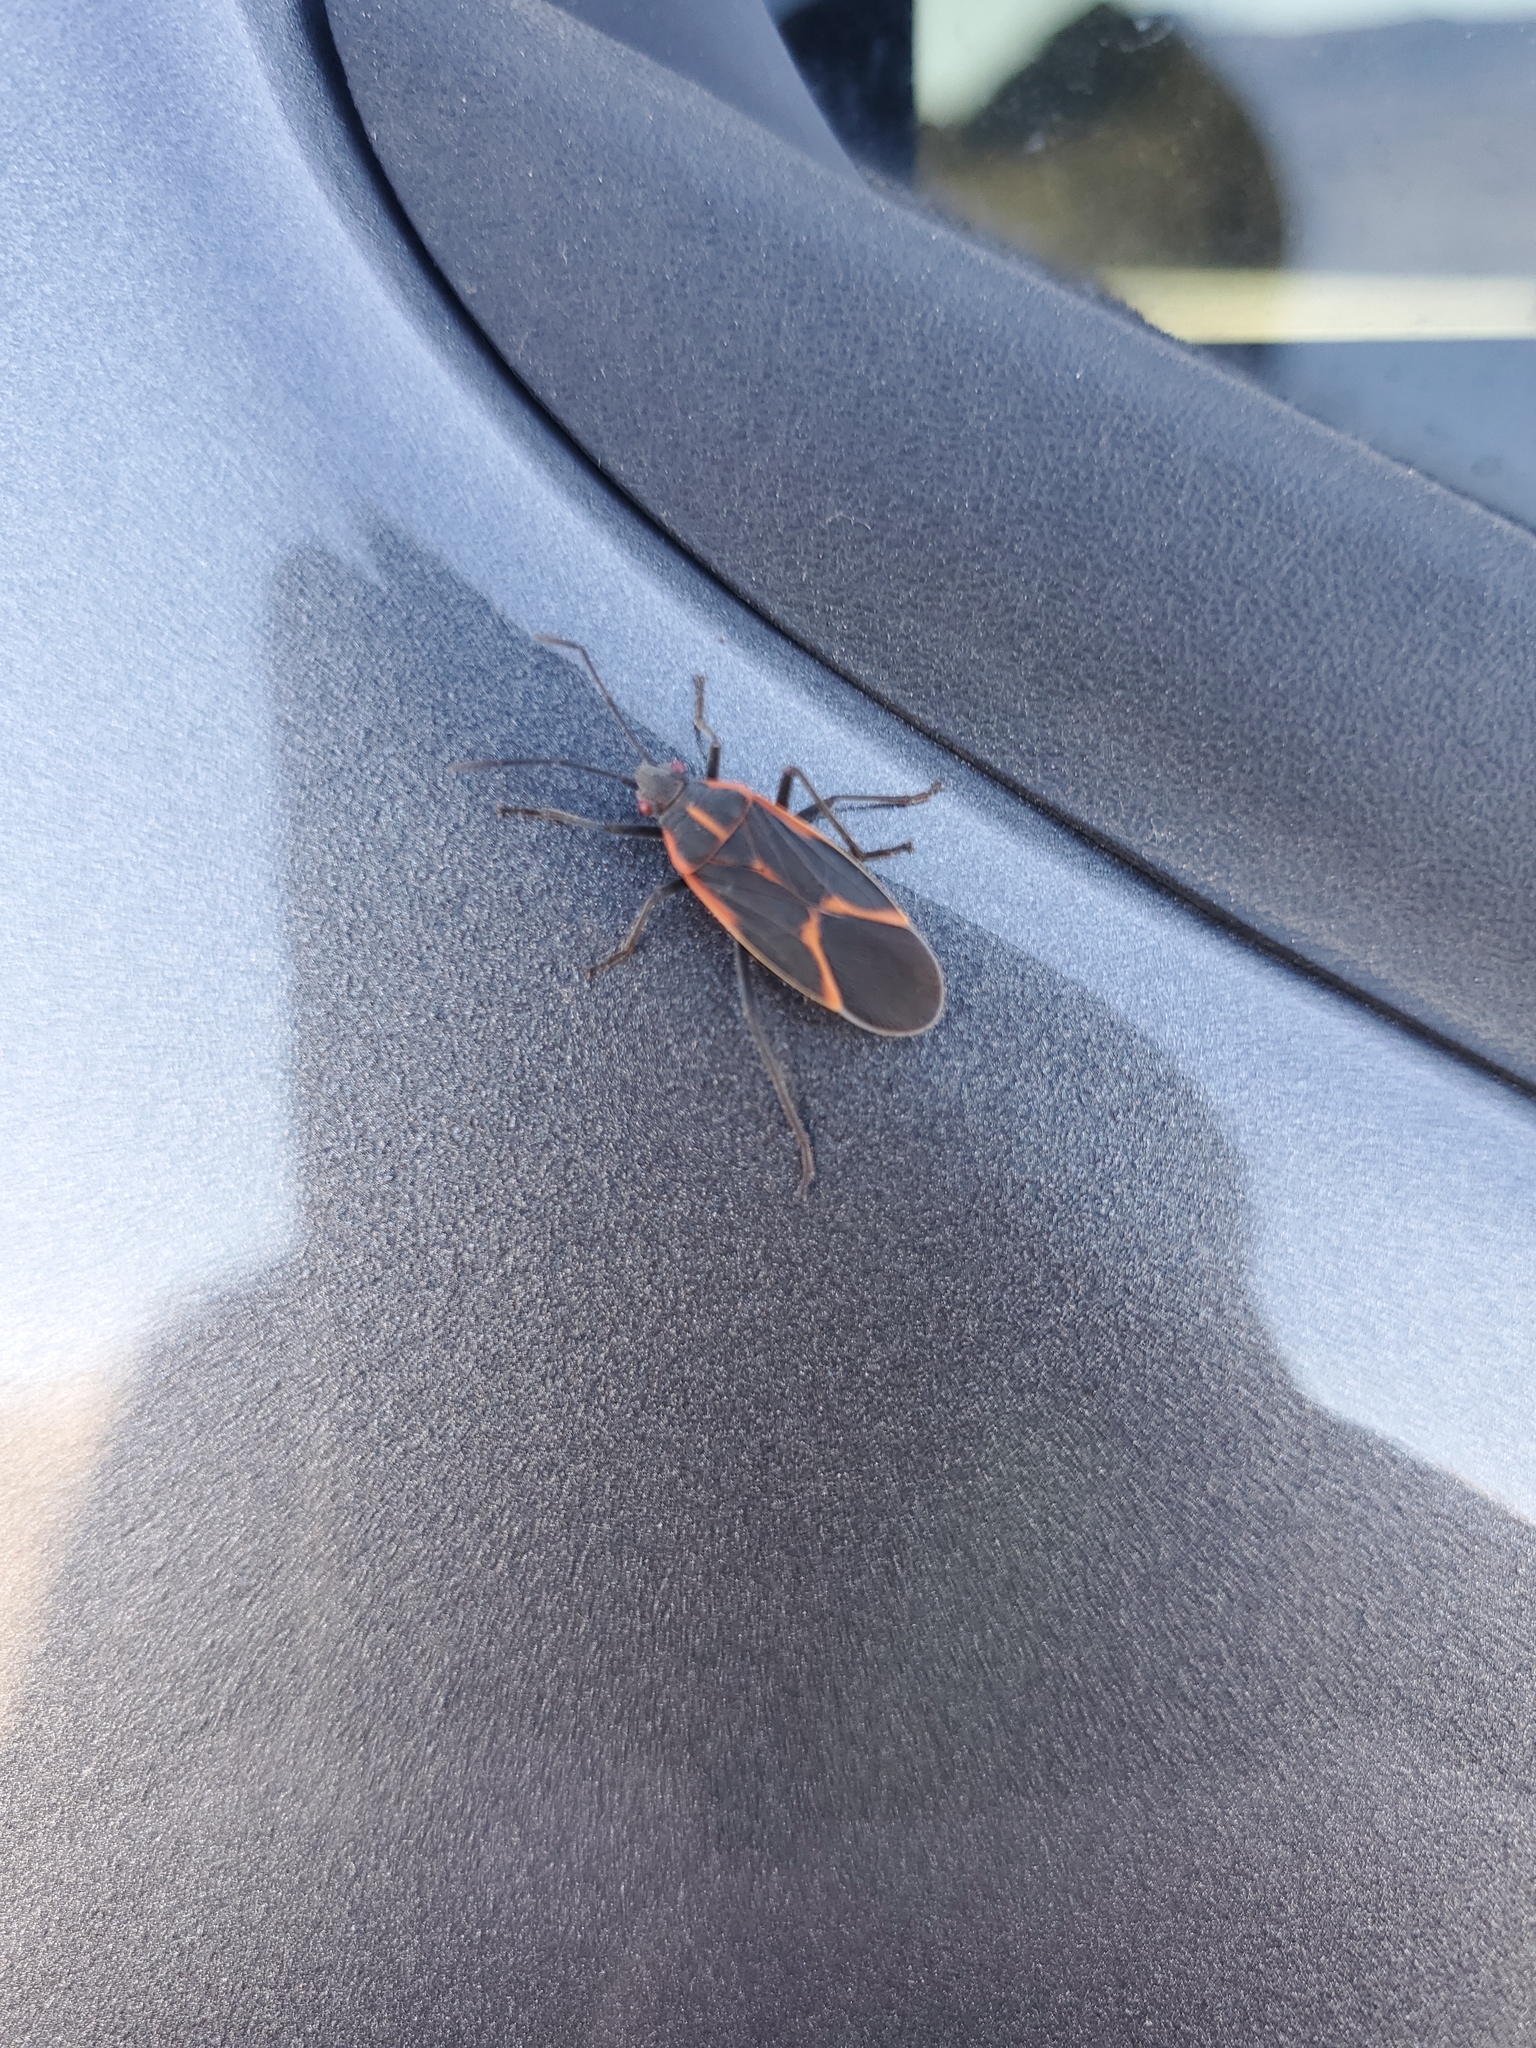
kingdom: Animalia
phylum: Arthropoda
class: Insecta
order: Hemiptera
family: Rhopalidae
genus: Boisea
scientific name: Boisea trivittata
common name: Boxelder bug
